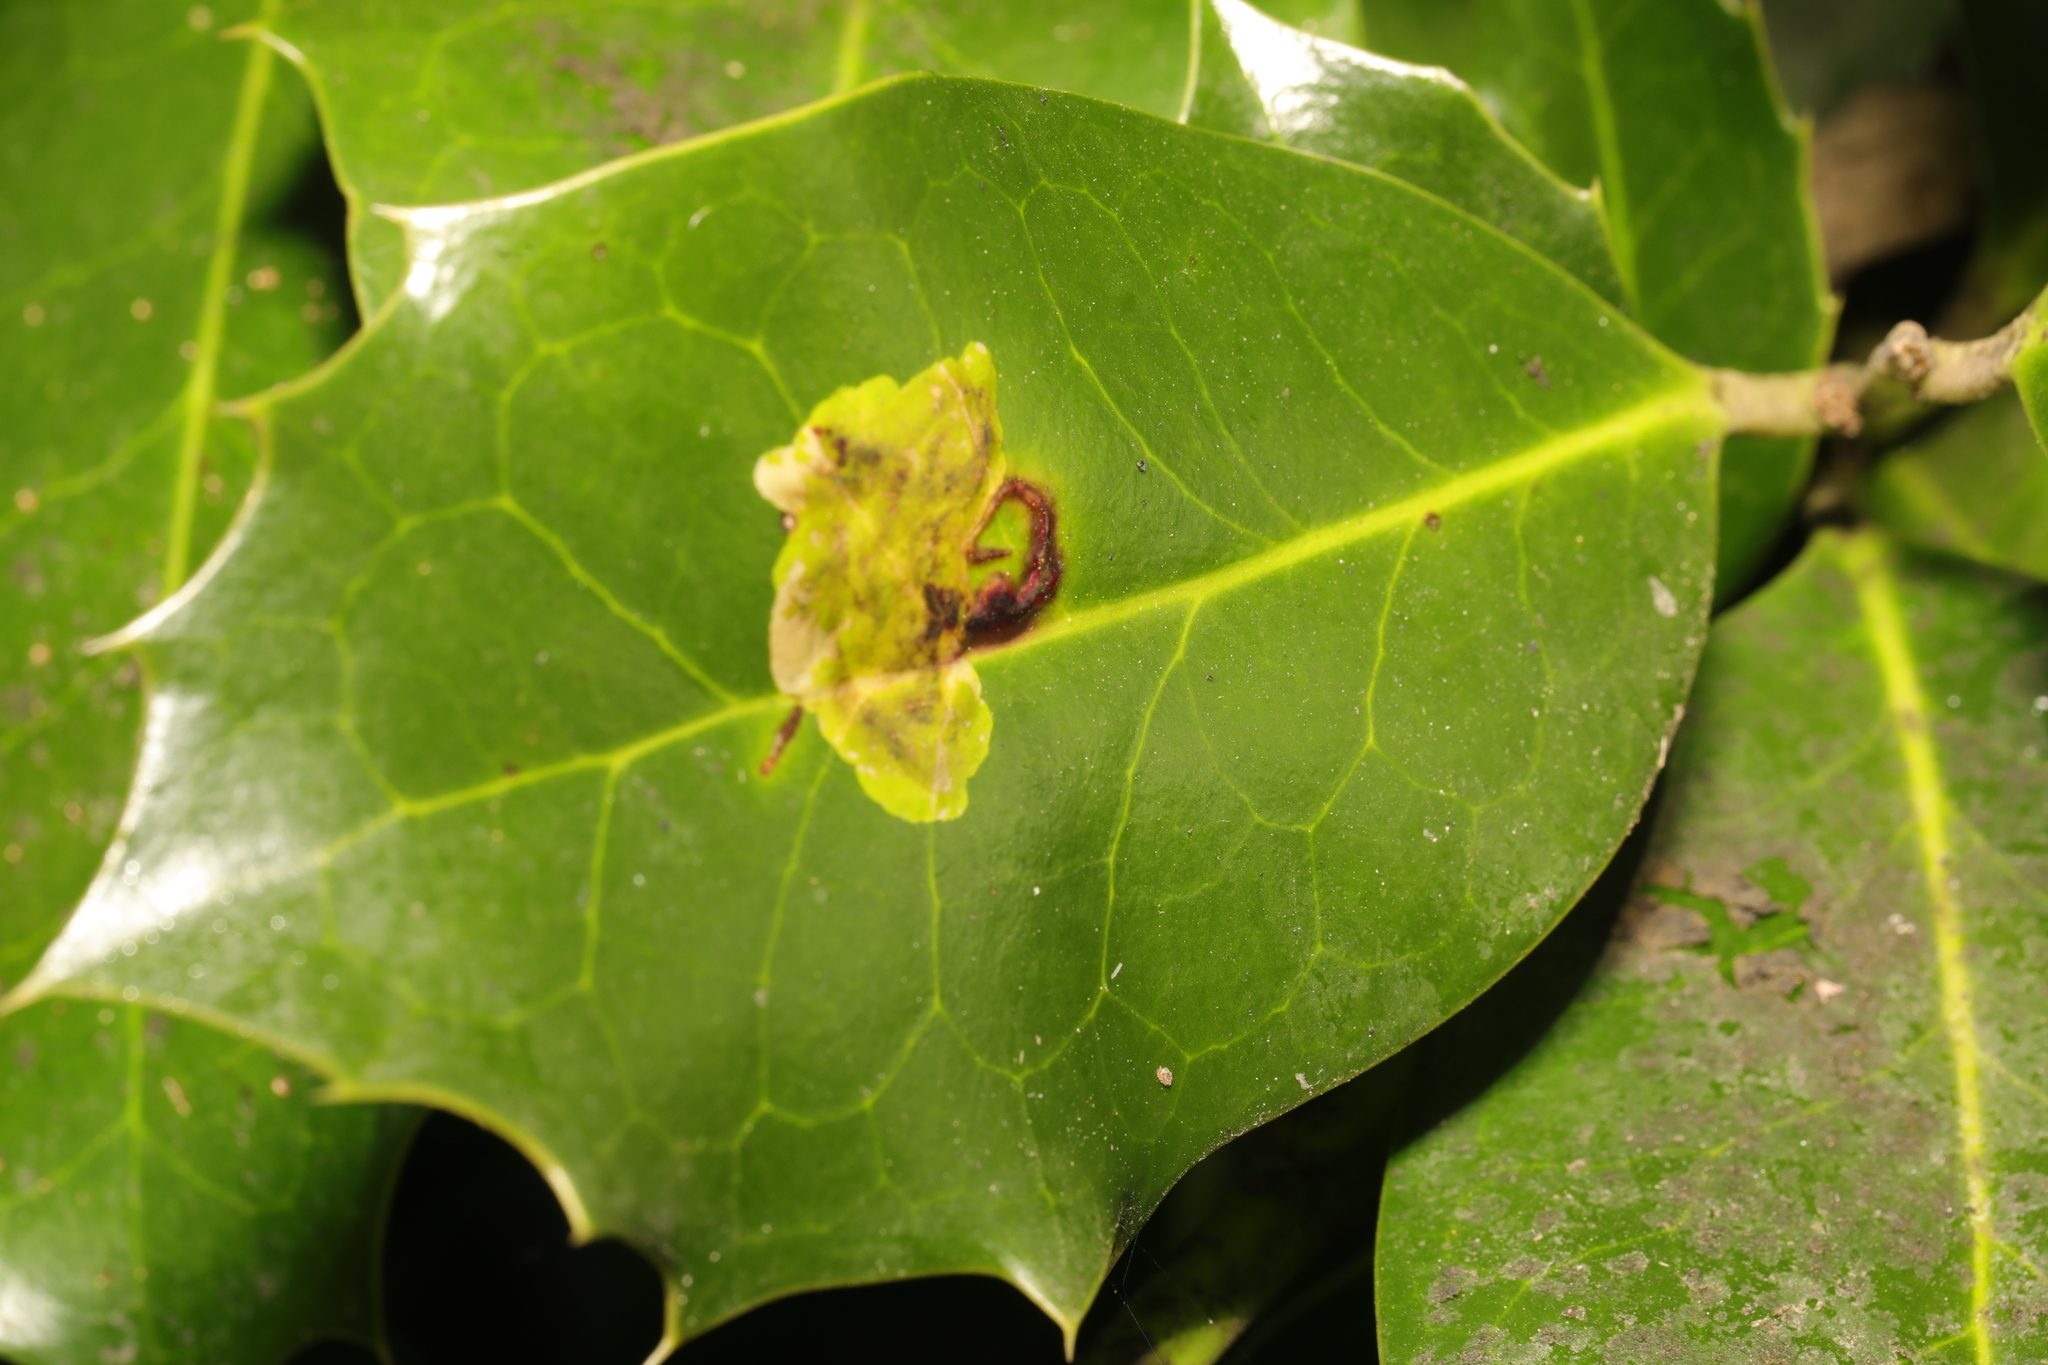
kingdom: Animalia
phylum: Arthropoda
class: Insecta
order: Diptera
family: Agromyzidae
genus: Phytomyza
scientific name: Phytomyza ilicis
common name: Holly leafminer
